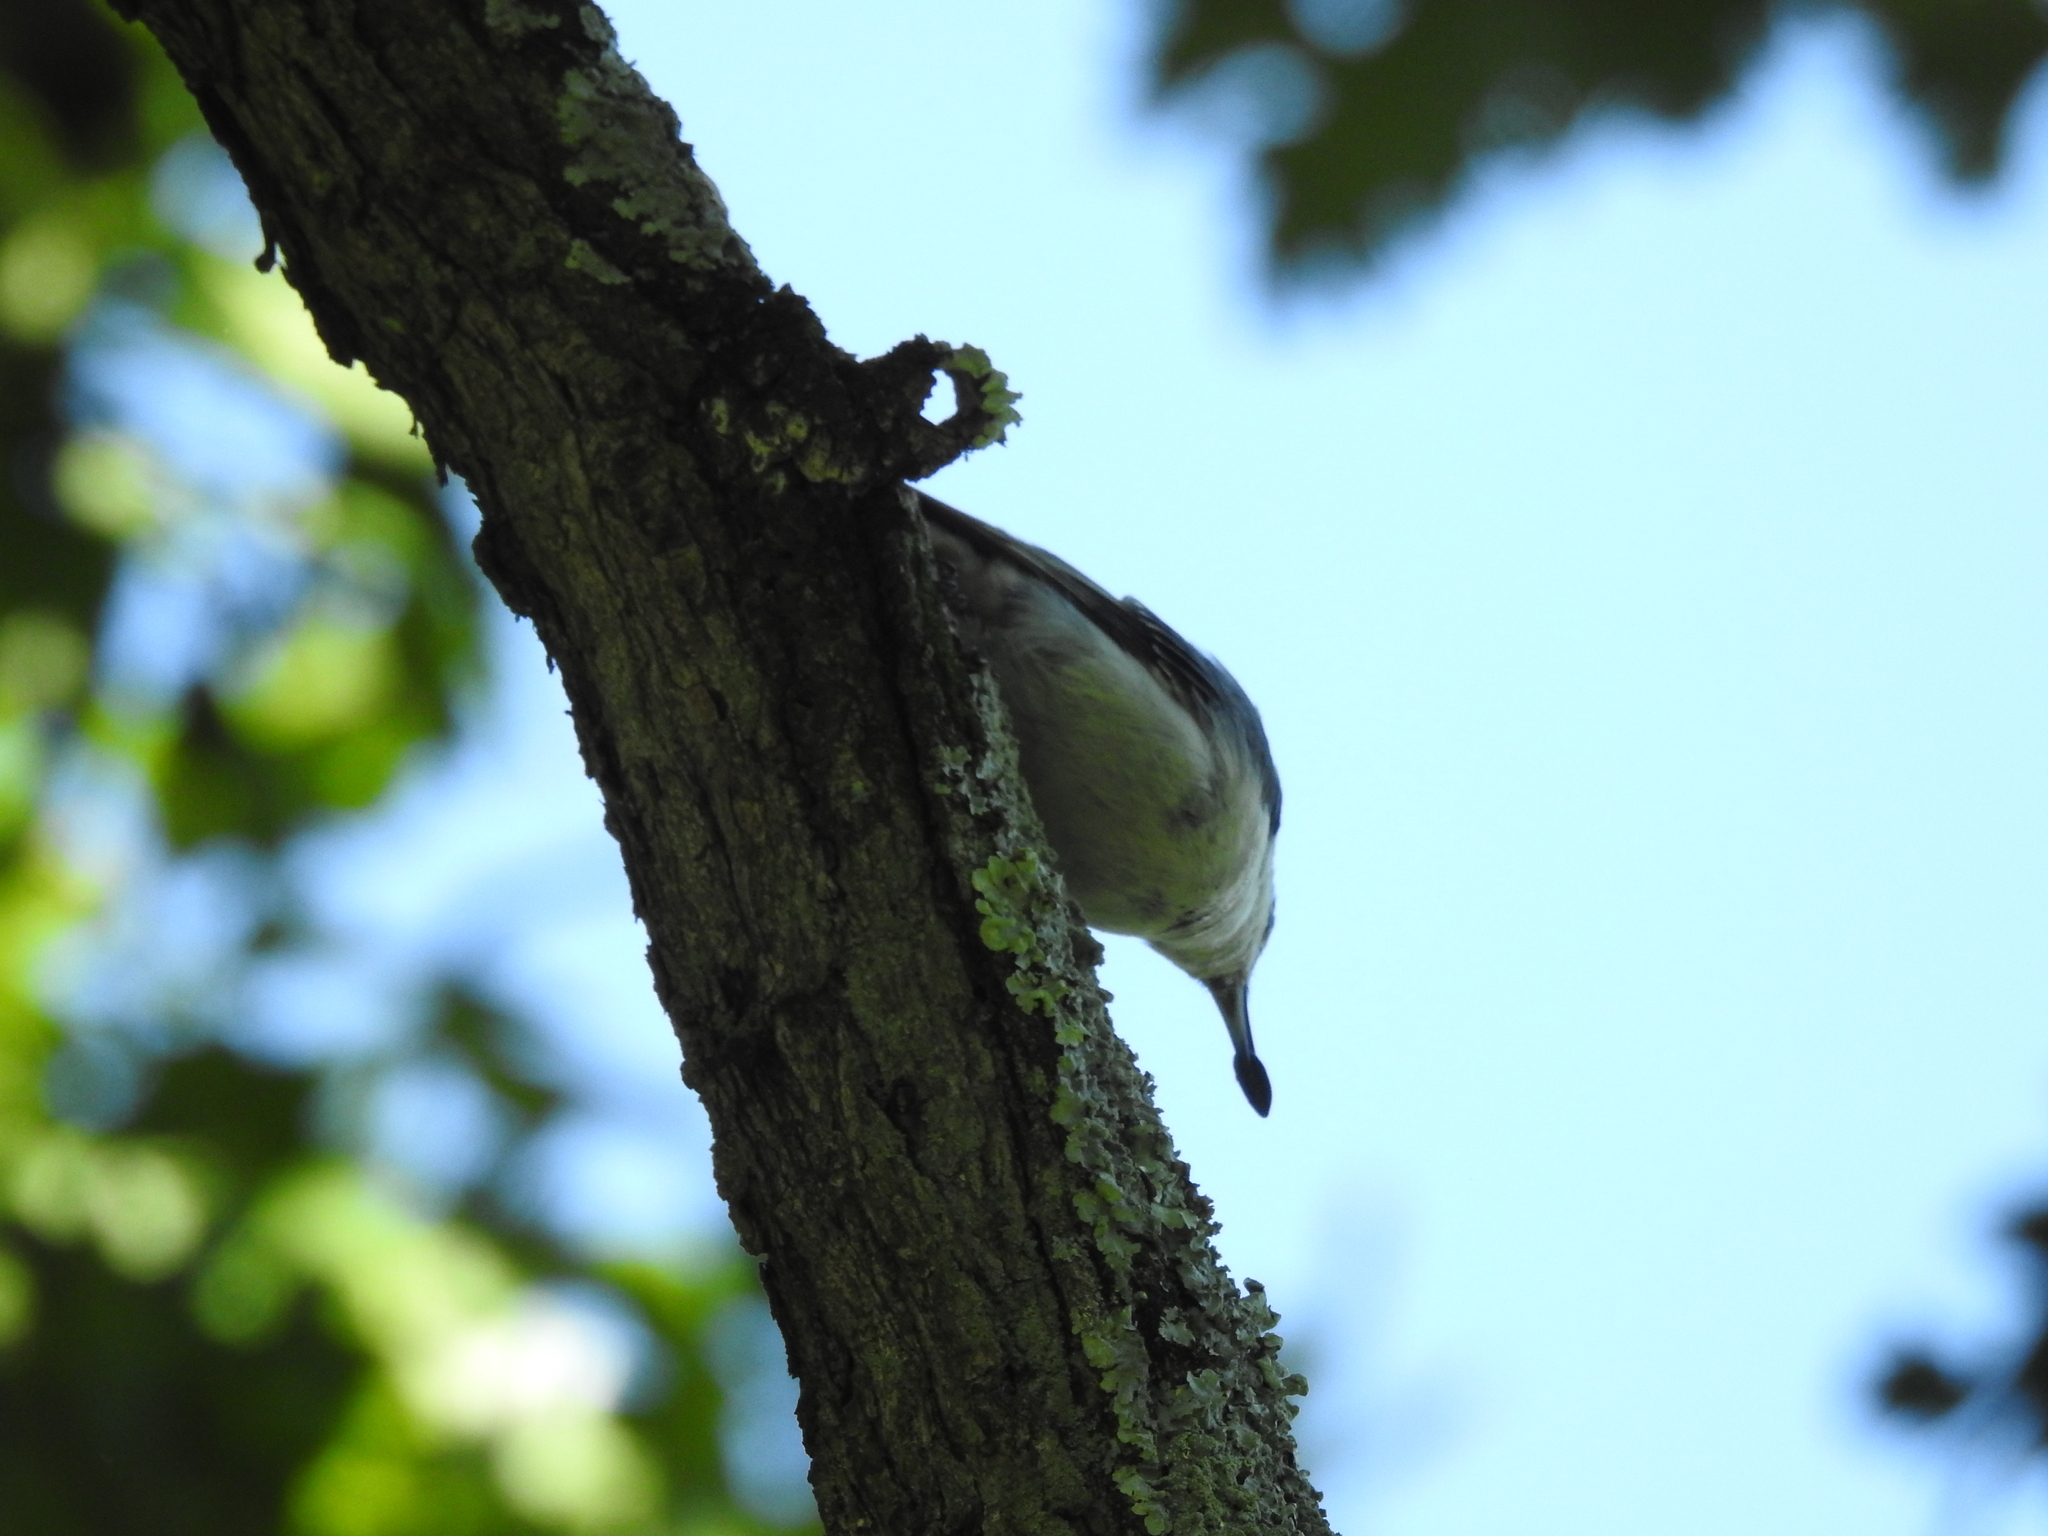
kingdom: Animalia
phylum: Chordata
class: Aves
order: Passeriformes
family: Sittidae
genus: Sitta
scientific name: Sitta carolinensis
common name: White-breasted nuthatch
